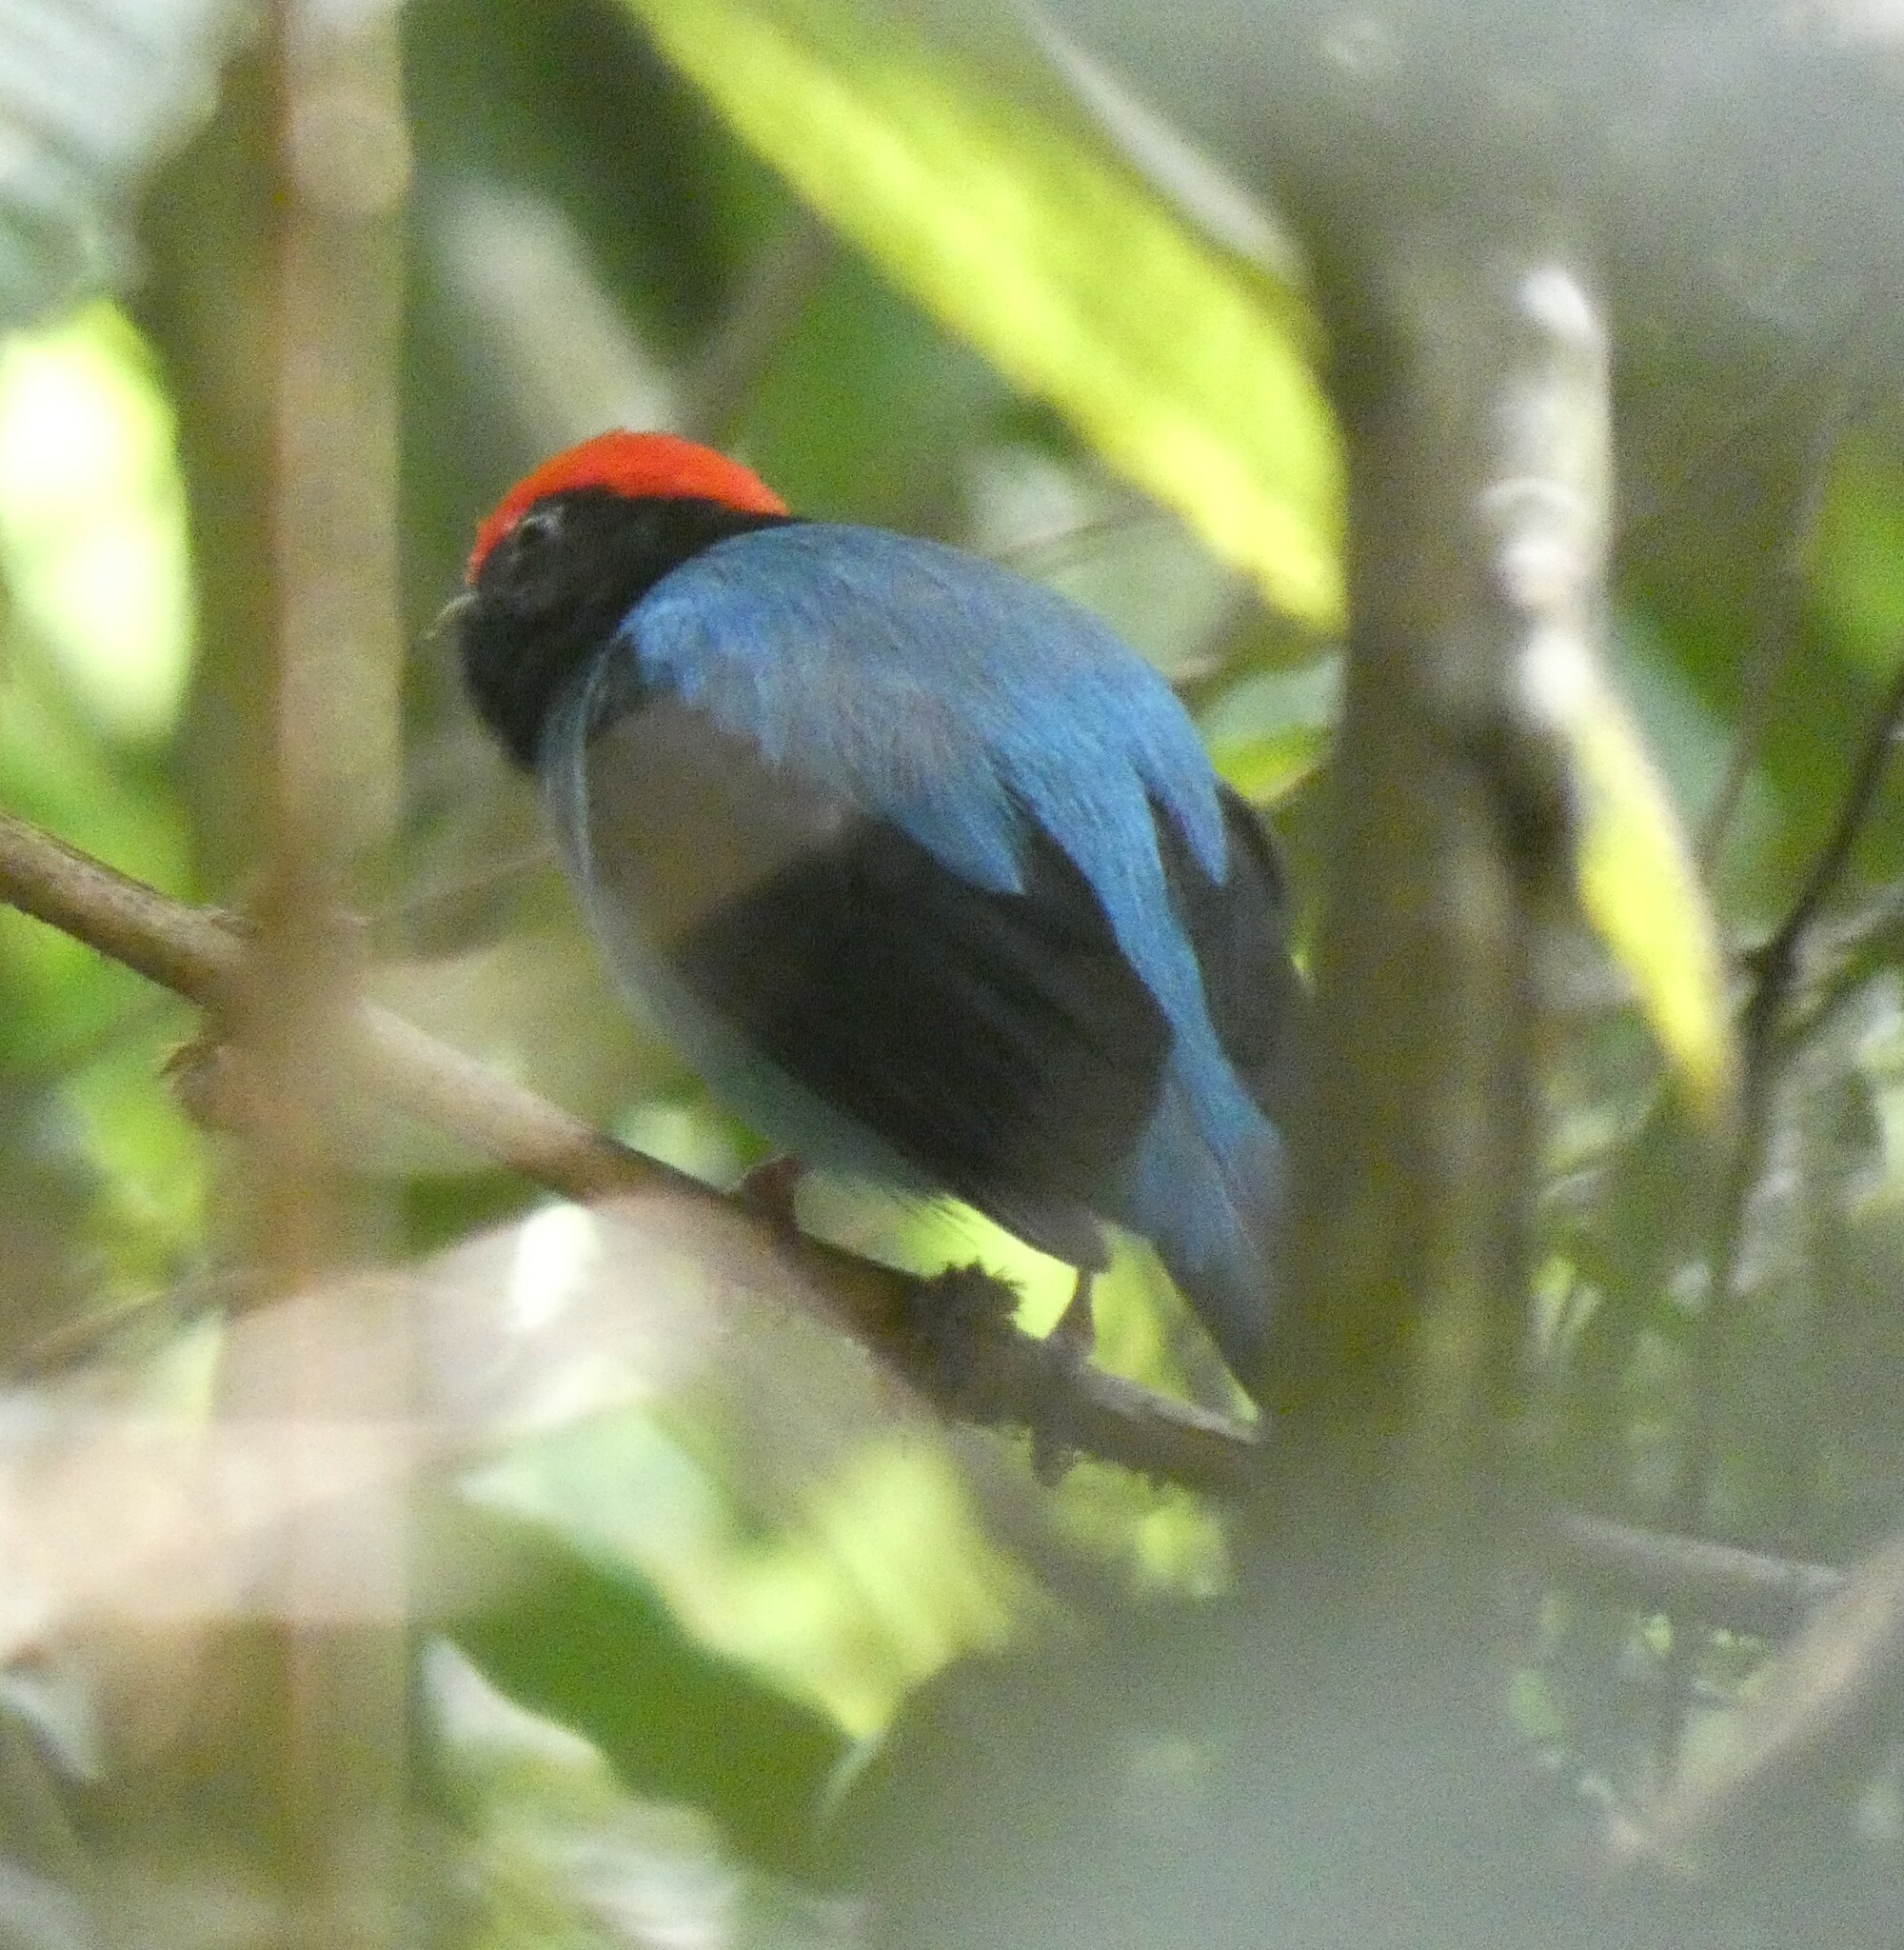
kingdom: Animalia
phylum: Chordata
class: Aves
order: Passeriformes
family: Pipridae
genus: Chiroxiphia
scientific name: Chiroxiphia caudata
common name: Blue manakin
